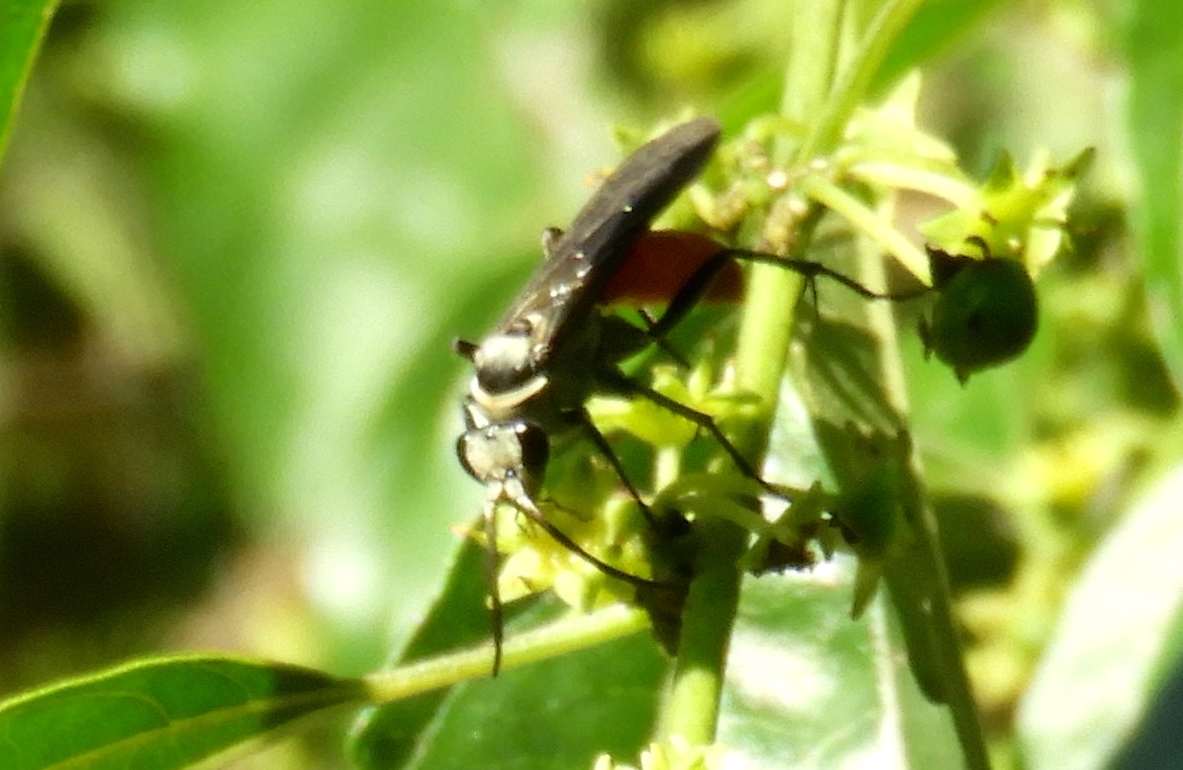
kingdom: Animalia
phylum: Arthropoda
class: Insecta
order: Hymenoptera
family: Pompilidae
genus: Xerochares
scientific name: Xerochares expulsus
